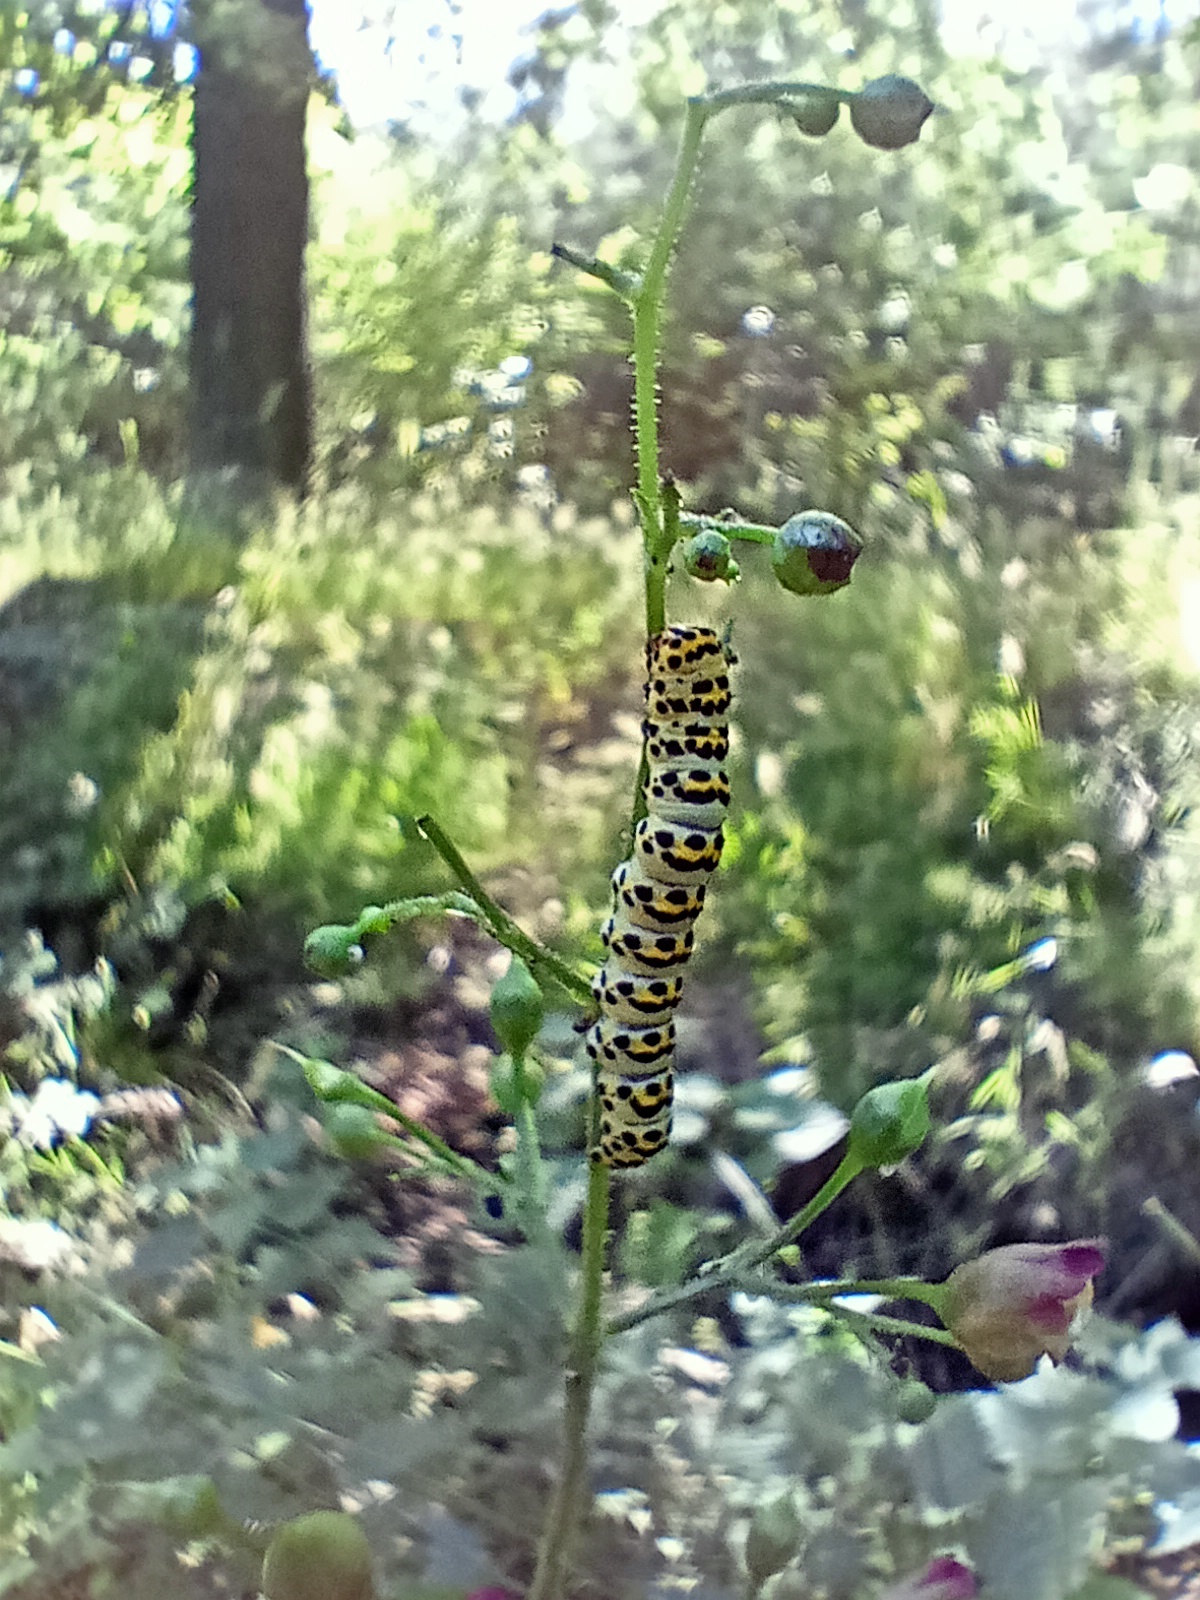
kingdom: Animalia
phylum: Arthropoda
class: Insecta
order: Lepidoptera
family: Noctuidae
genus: Shargacucullia
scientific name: Shargacucullia scrophulariae
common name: Water betony
